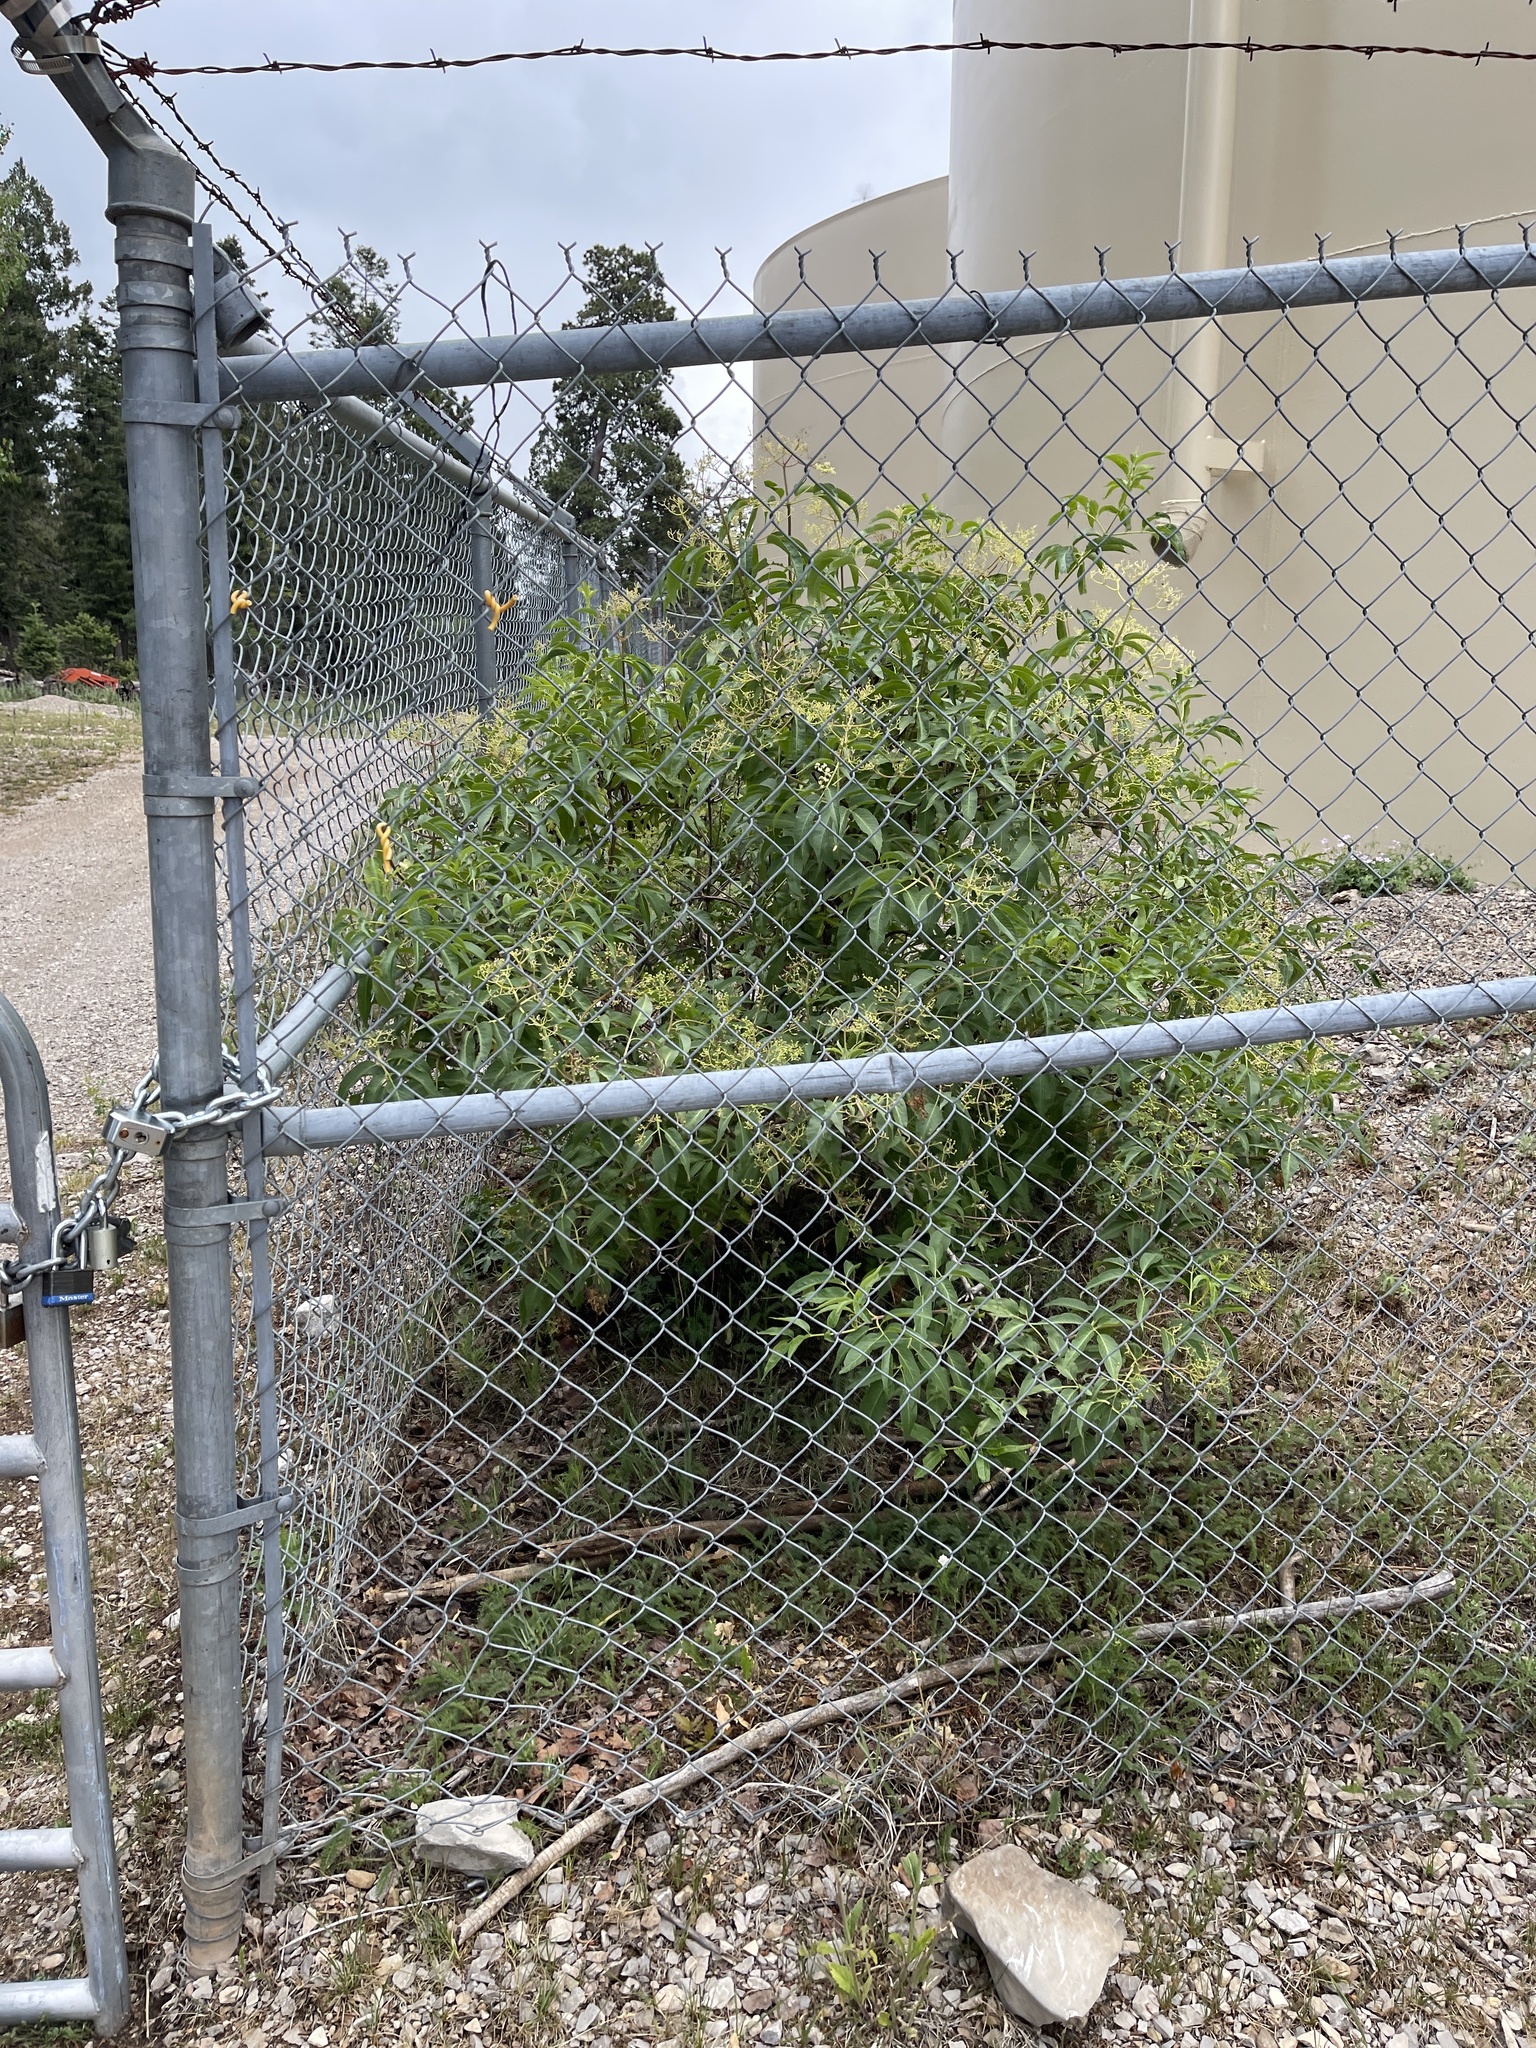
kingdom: Plantae
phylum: Tracheophyta
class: Magnoliopsida
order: Dipsacales
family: Viburnaceae
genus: Sambucus
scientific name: Sambucus cerulea
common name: Blue elder
